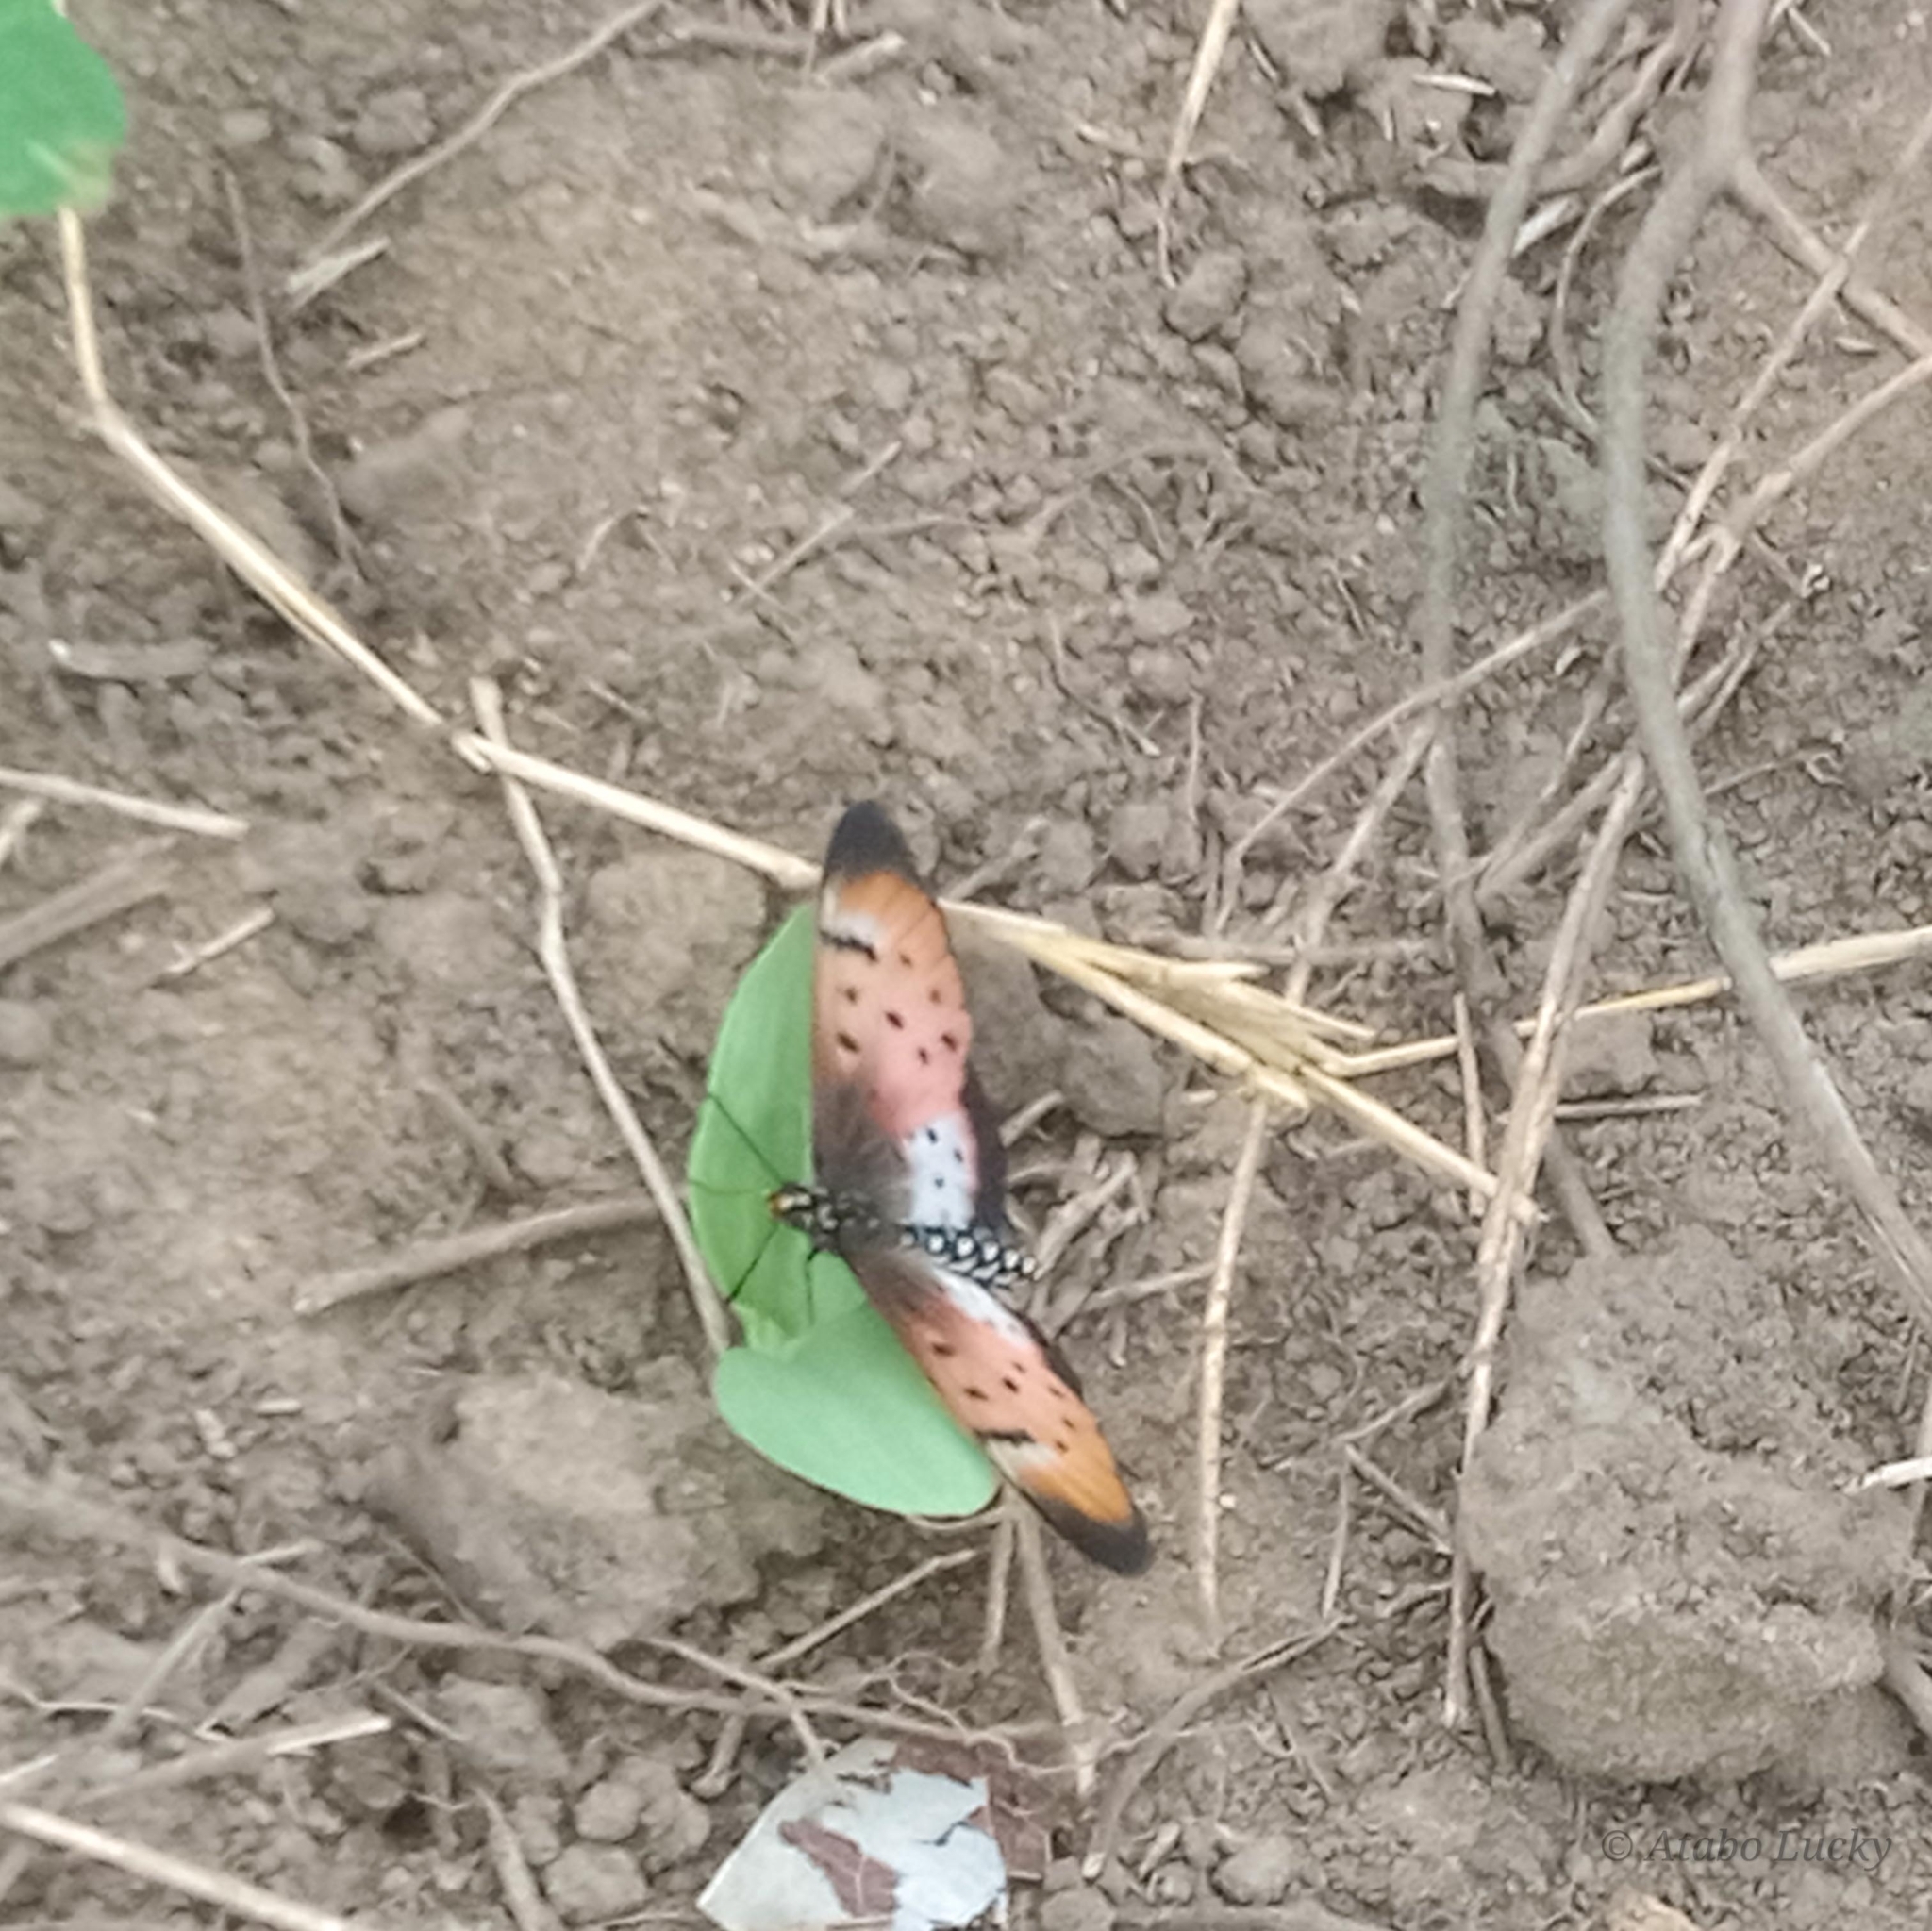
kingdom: Animalia
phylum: Arthropoda
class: Insecta
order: Lepidoptera
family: Nymphalidae
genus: Stephenia
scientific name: Stephenia
